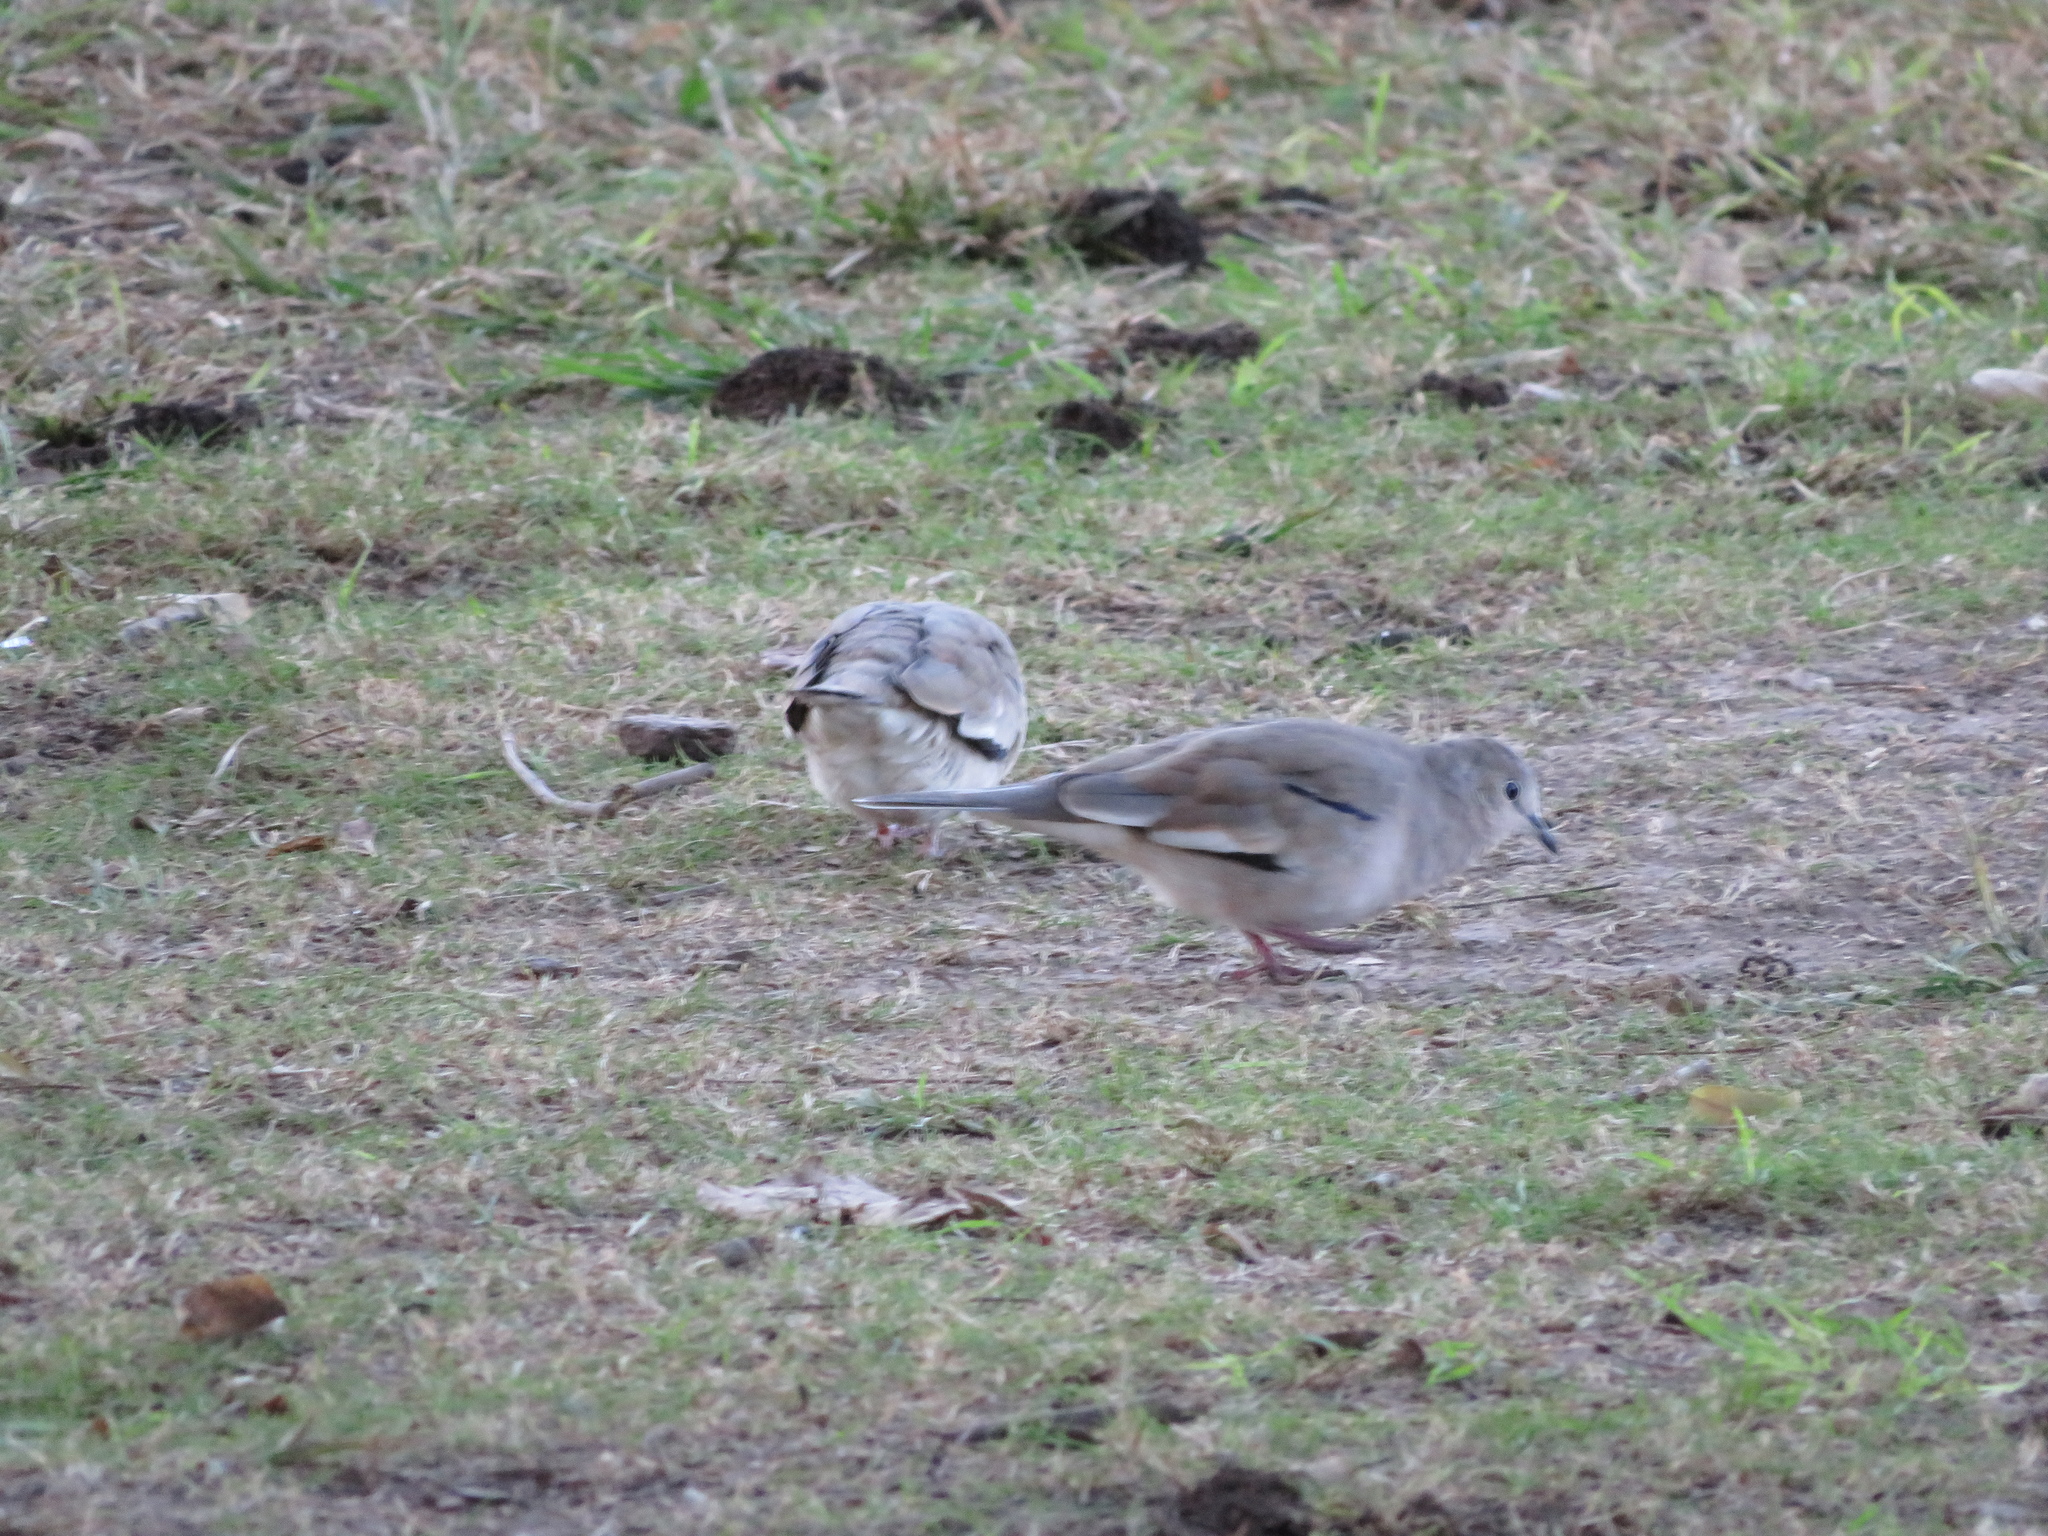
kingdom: Animalia
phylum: Chordata
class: Aves
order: Columbiformes
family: Columbidae
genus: Columbina
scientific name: Columbina picui
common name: Picui ground dove
